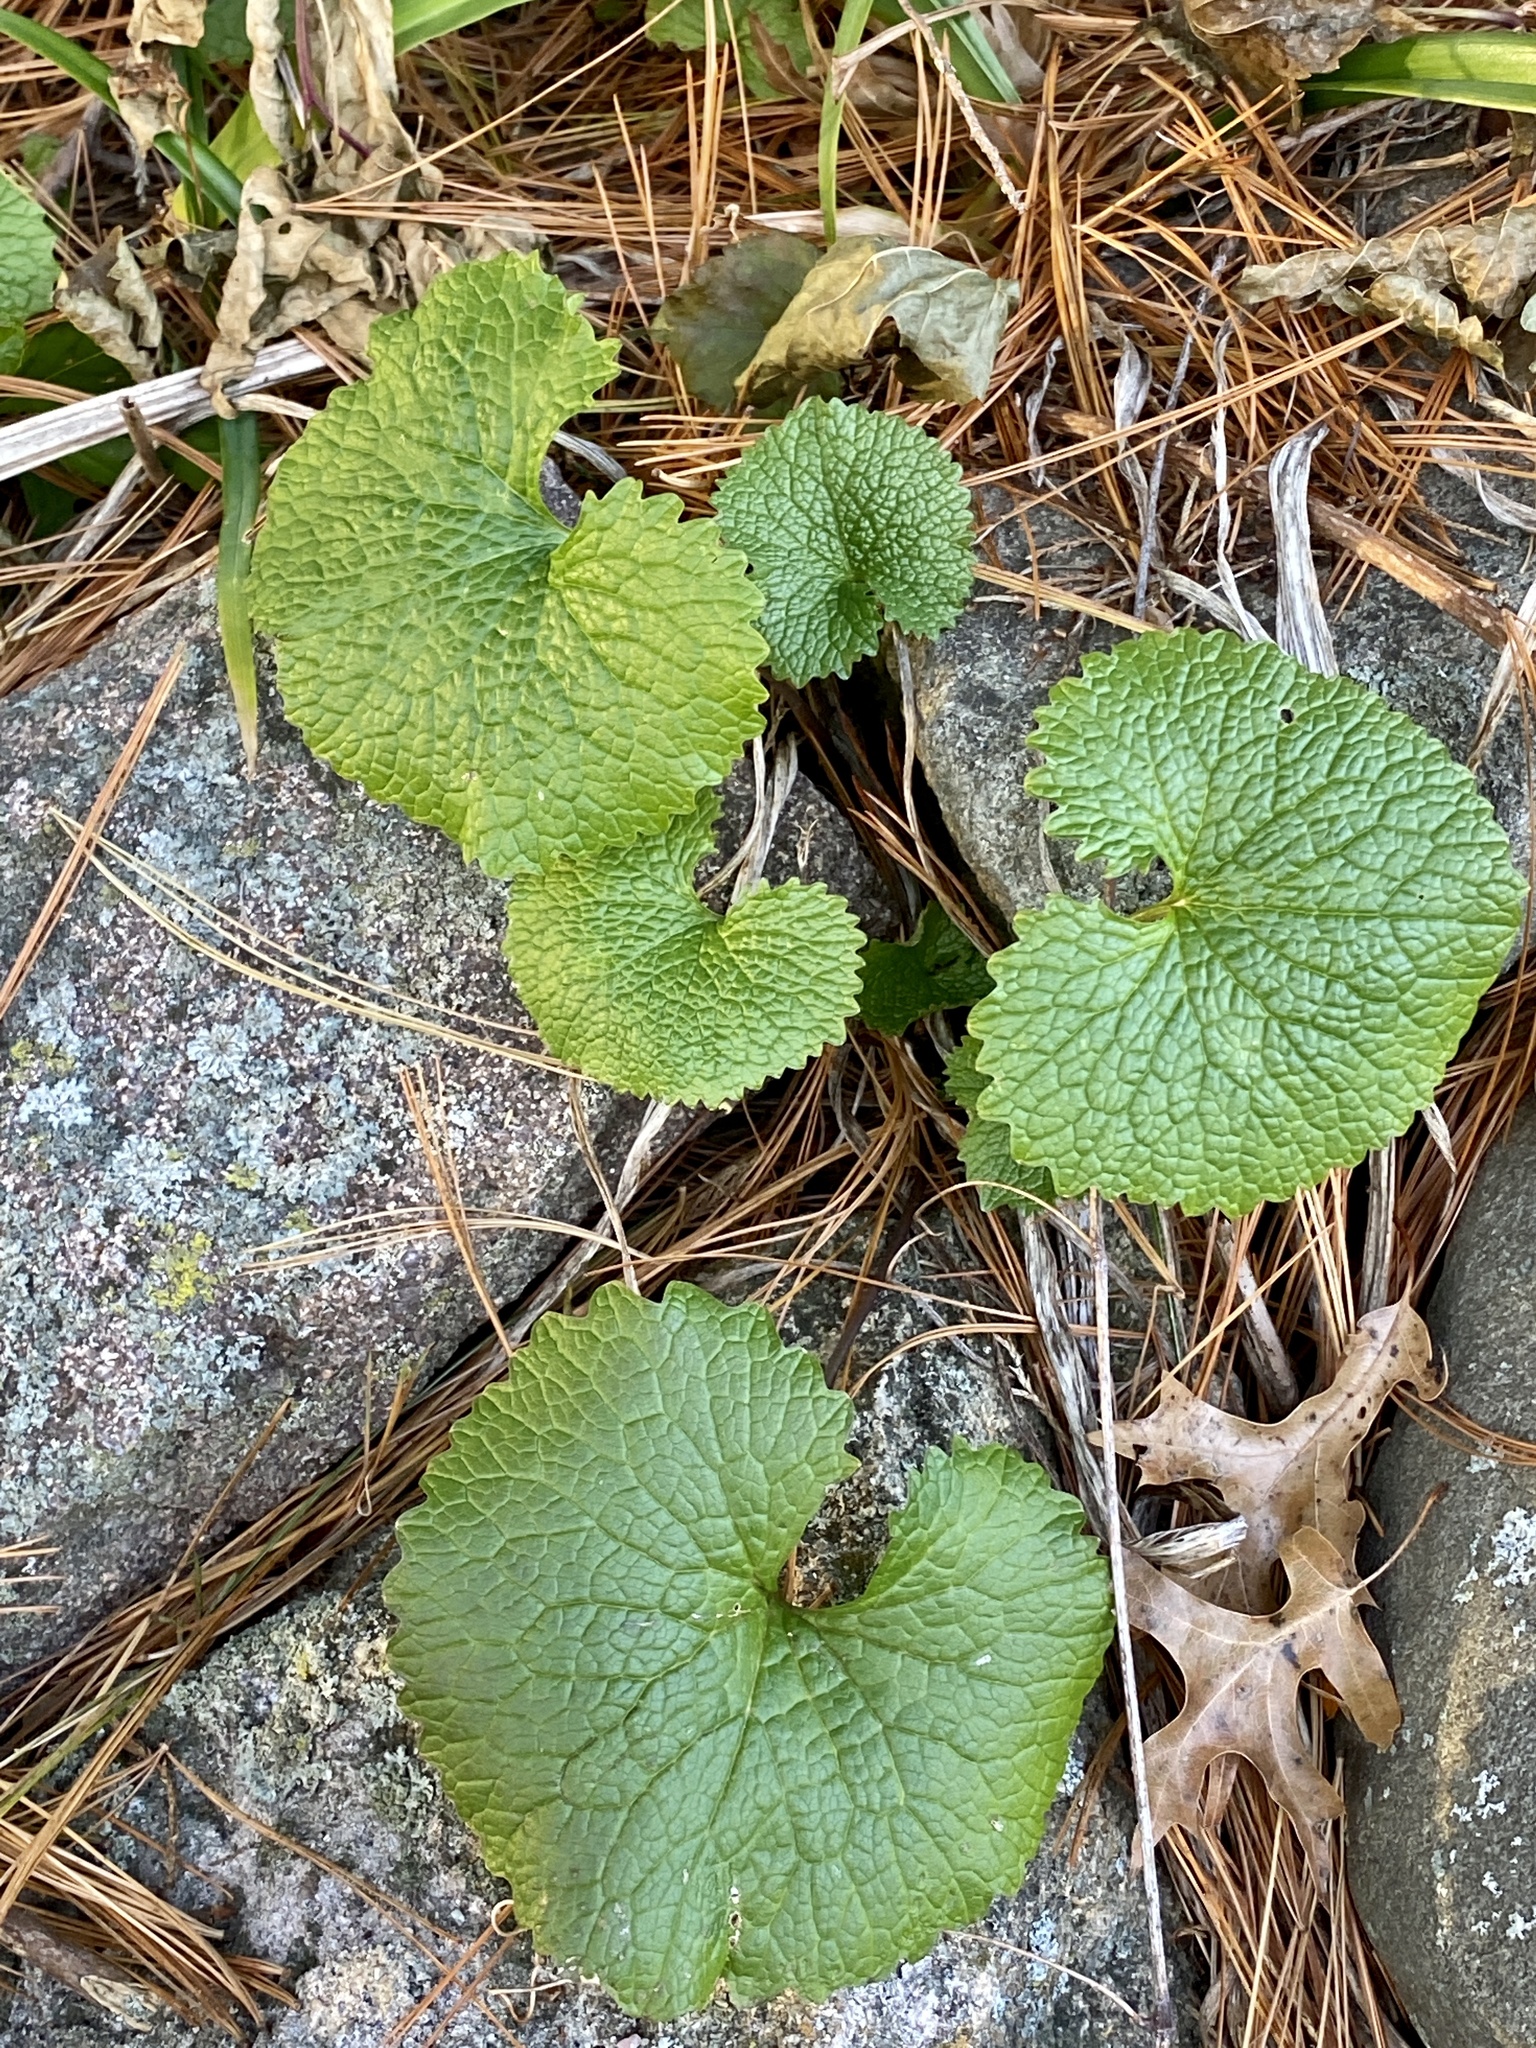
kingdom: Plantae
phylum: Tracheophyta
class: Magnoliopsida
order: Brassicales
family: Brassicaceae
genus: Alliaria
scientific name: Alliaria petiolata
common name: Garlic mustard
